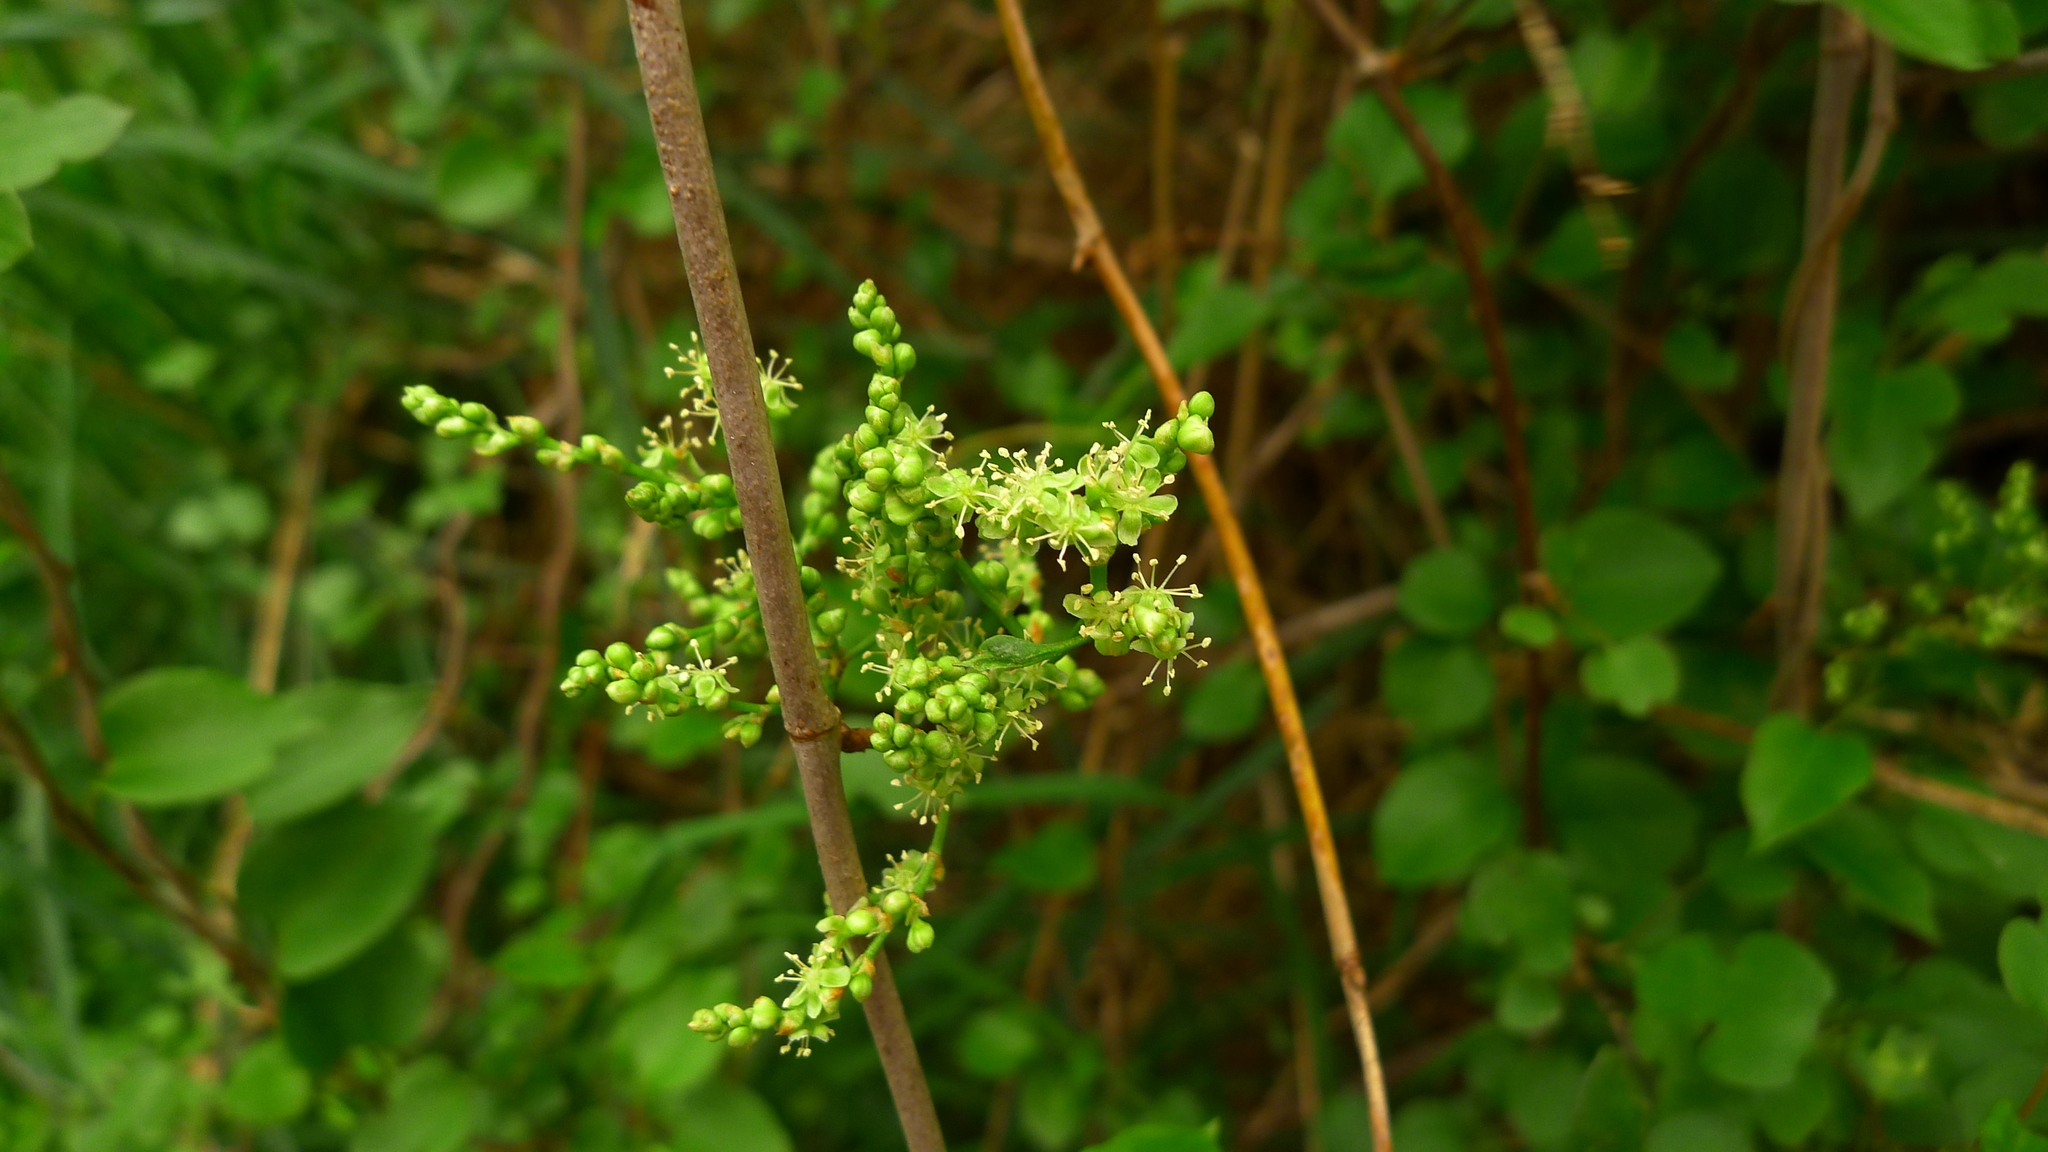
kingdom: Plantae
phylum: Tracheophyta
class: Magnoliopsida
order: Caryophyllales
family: Polygonaceae
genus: Muehlenbeckia
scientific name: Muehlenbeckia australis
